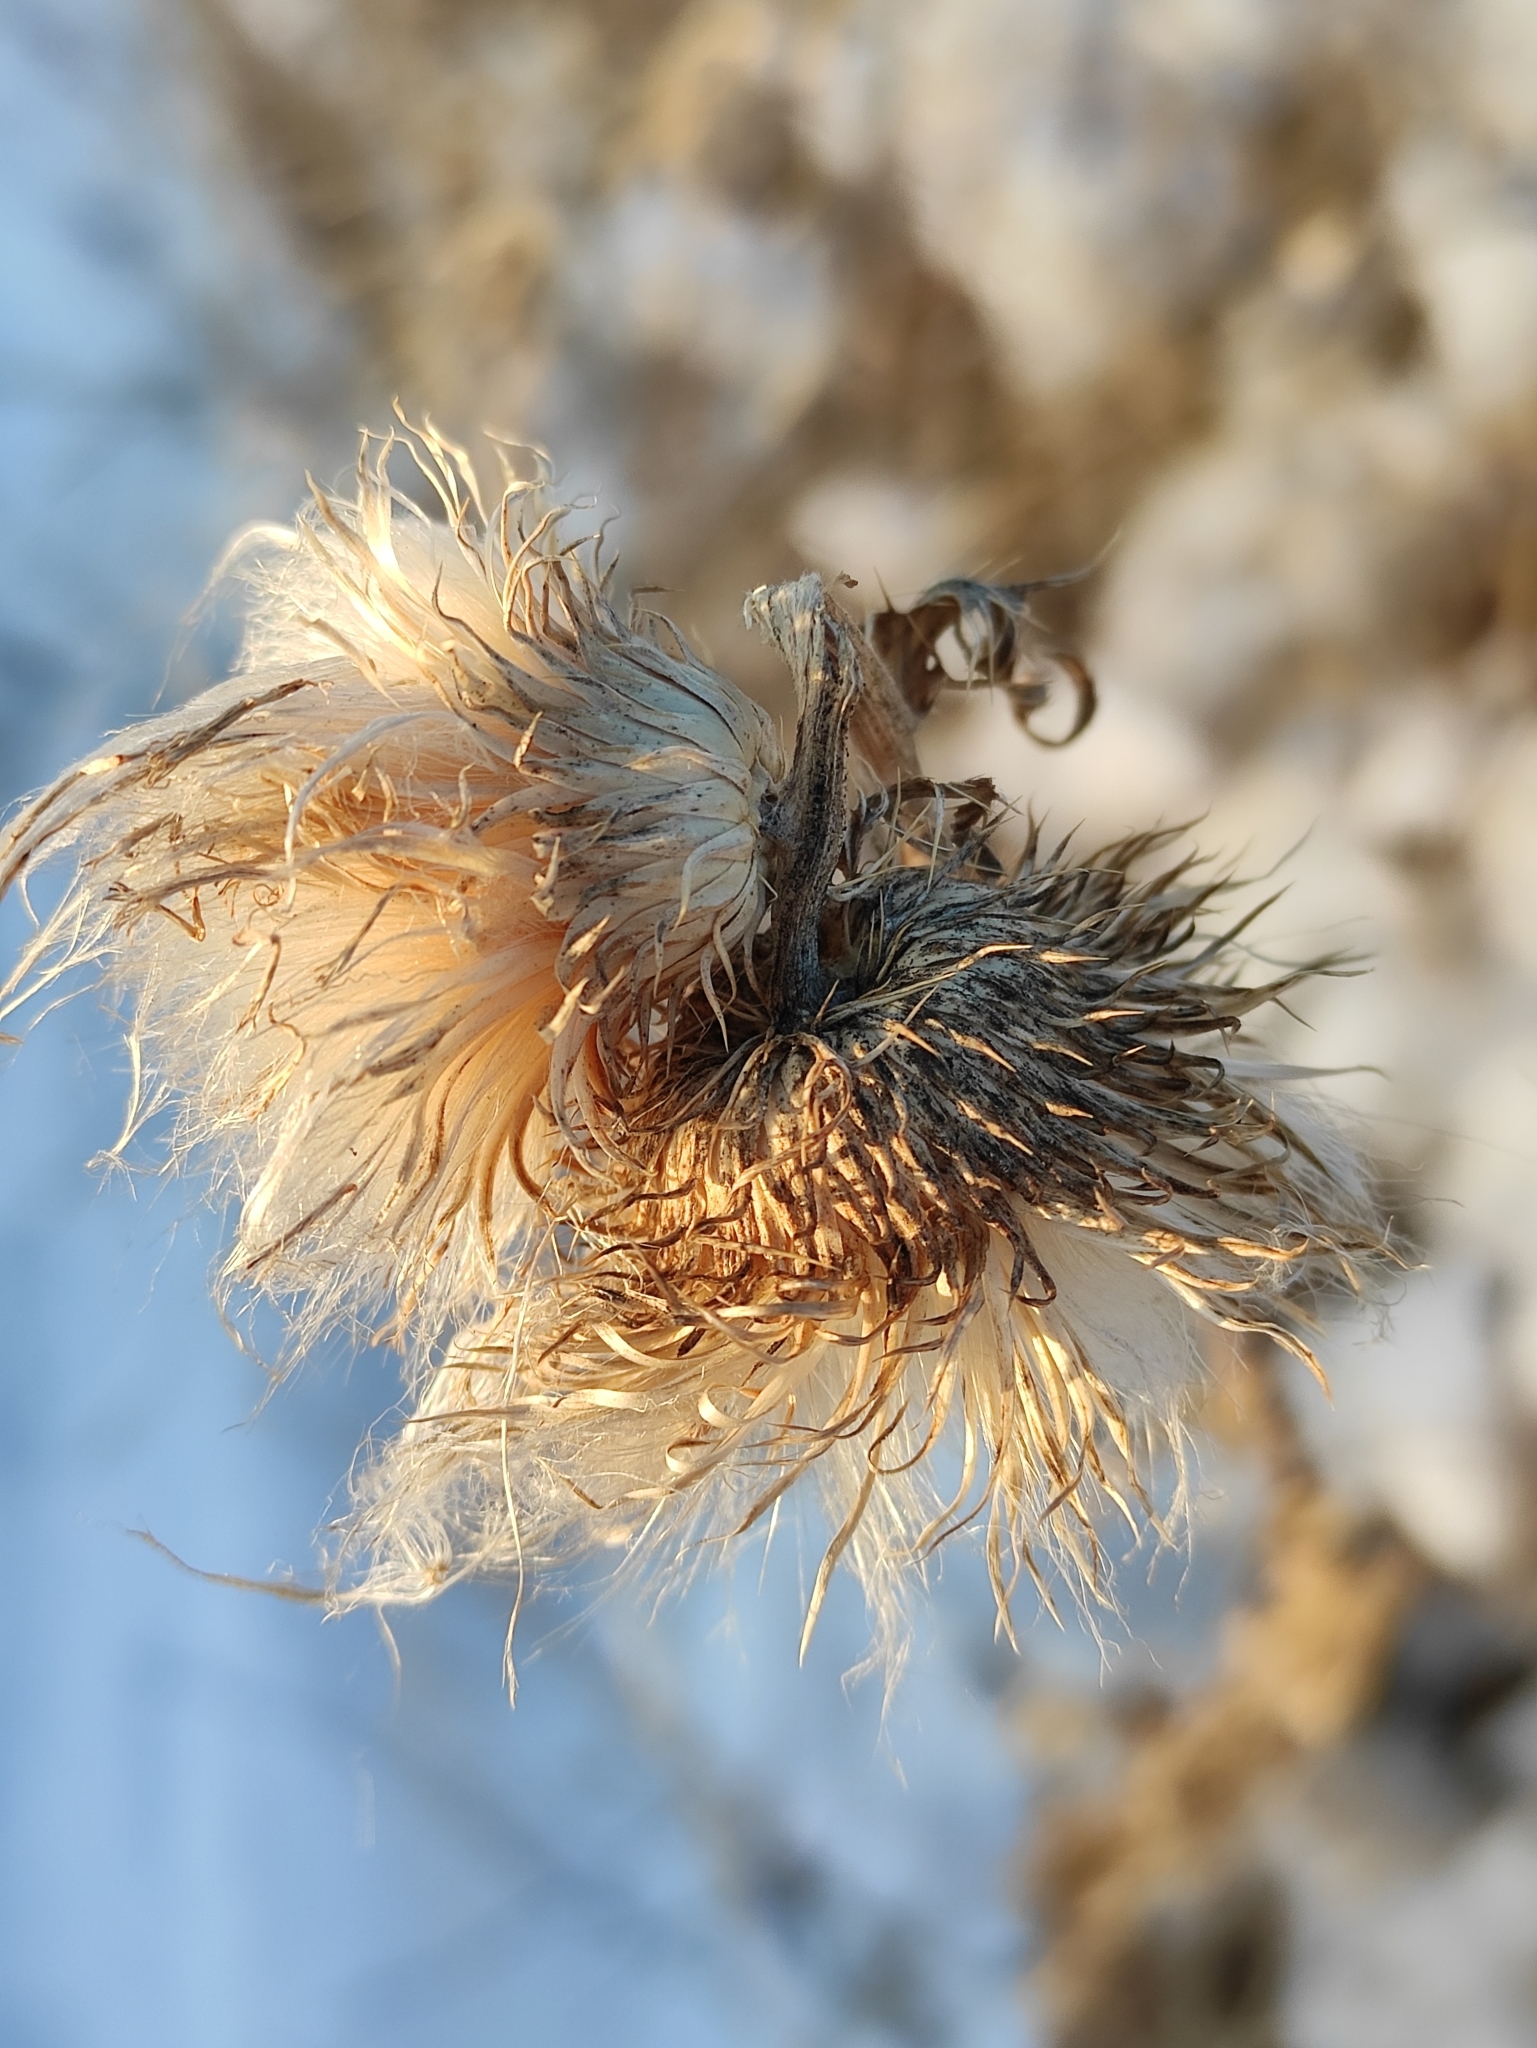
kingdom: Plantae
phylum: Tracheophyta
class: Magnoliopsida
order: Asterales
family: Asteraceae
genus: Cirsium
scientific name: Cirsium pendulum
